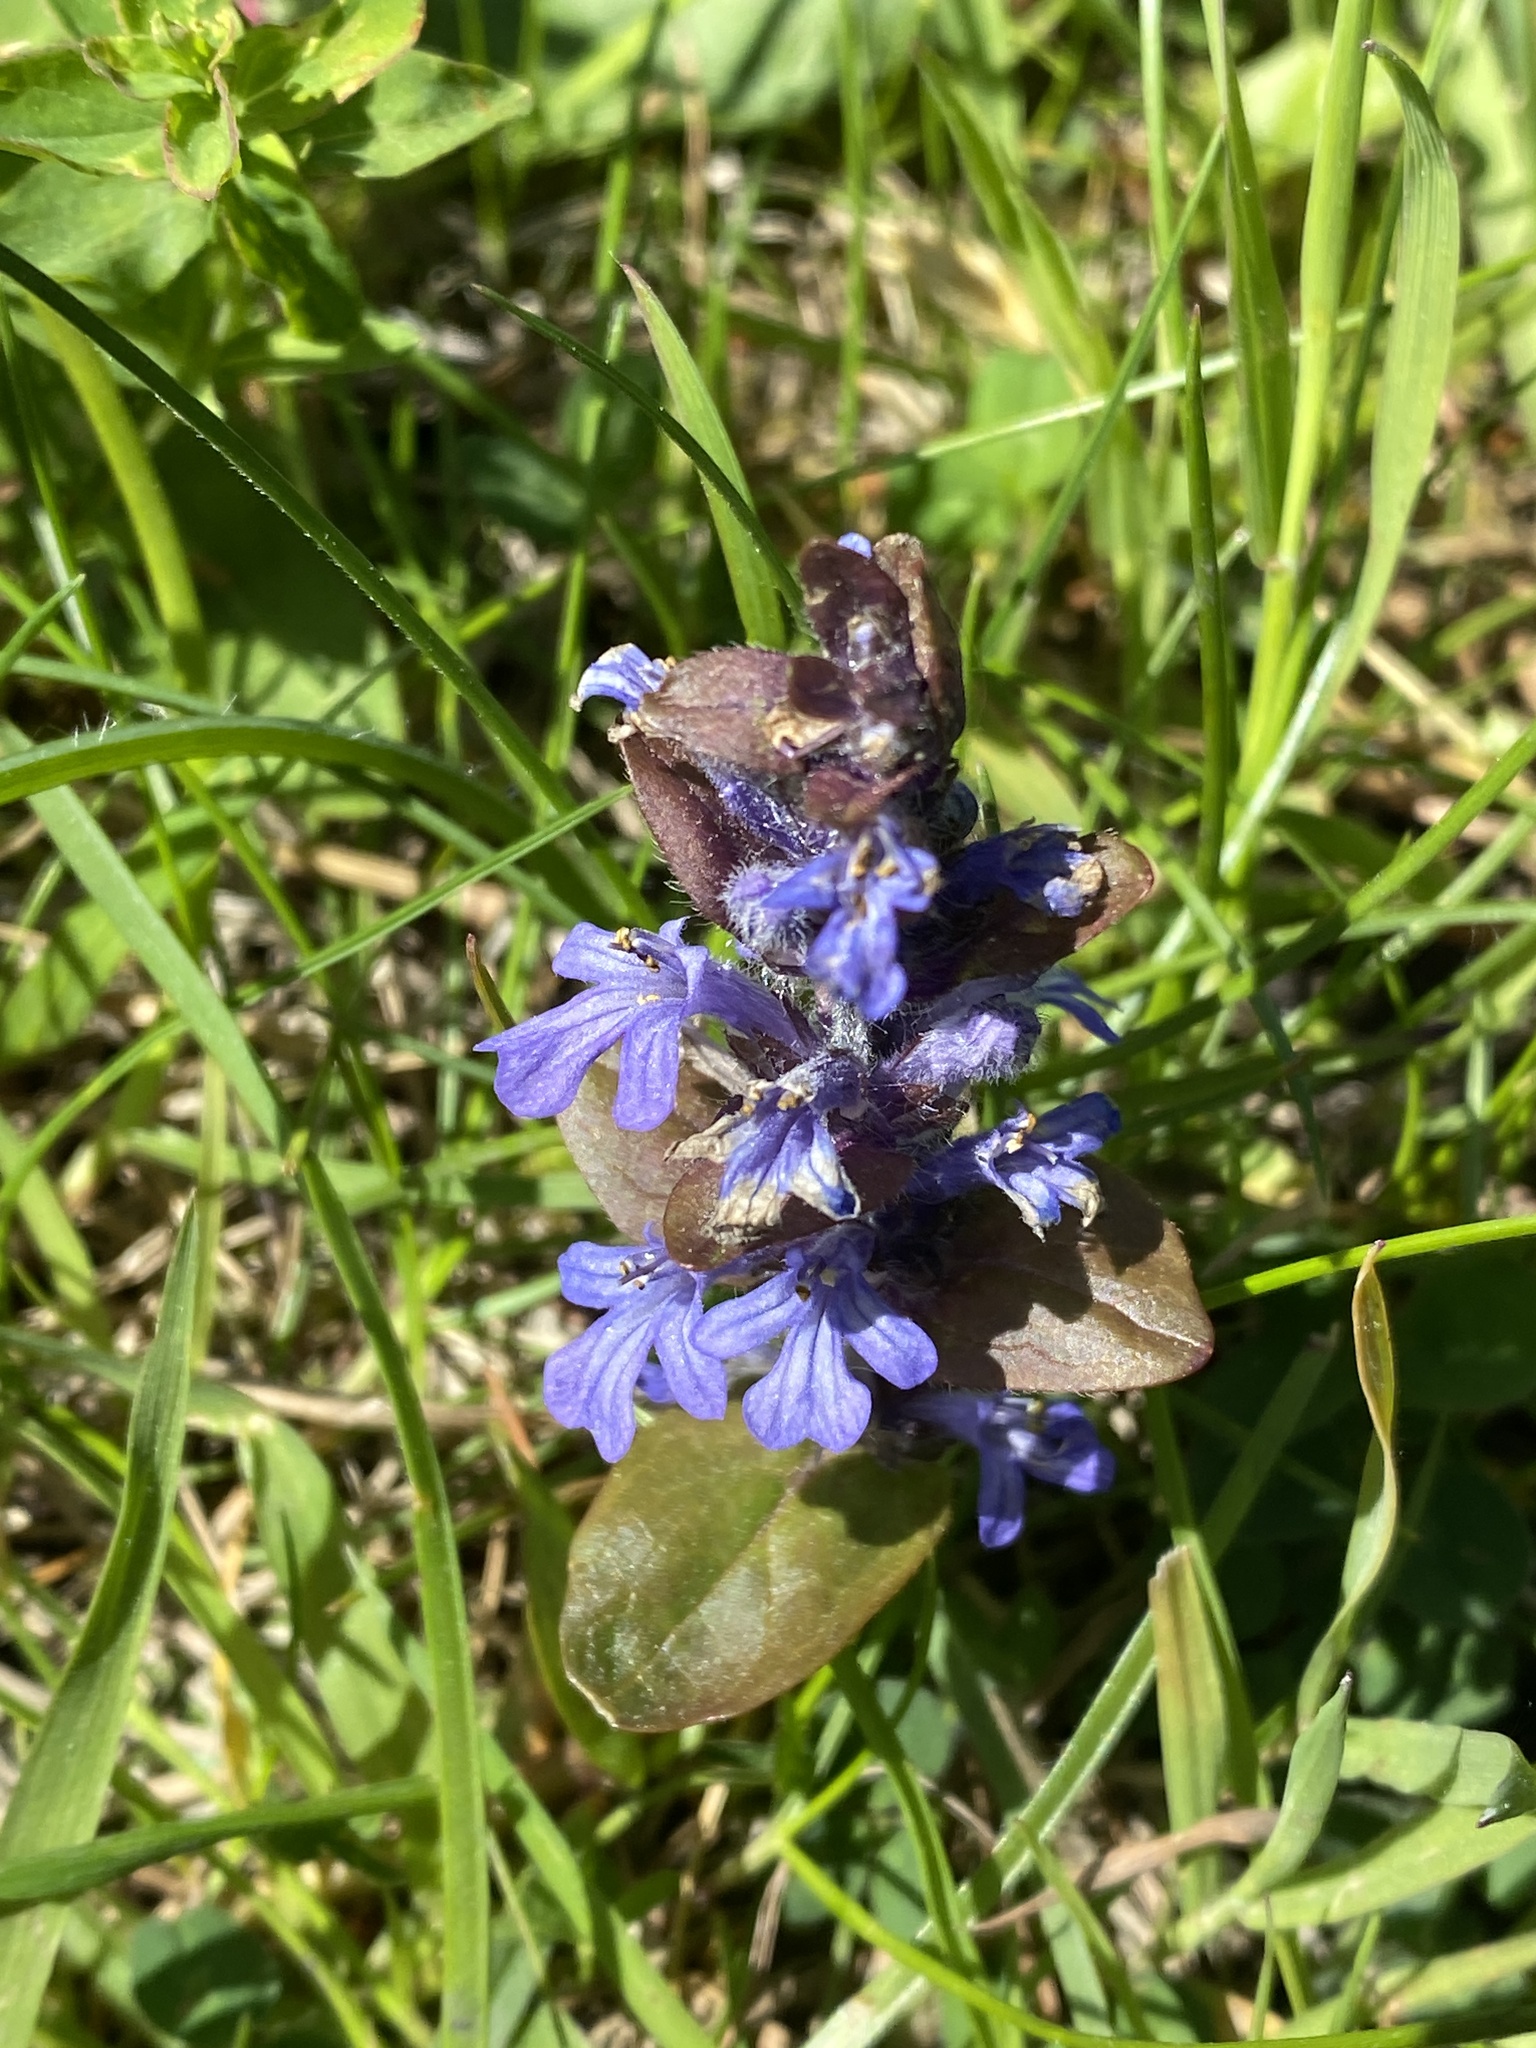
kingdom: Plantae
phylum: Tracheophyta
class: Magnoliopsida
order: Lamiales
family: Lamiaceae
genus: Ajuga
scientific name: Ajuga reptans
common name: Bugle
